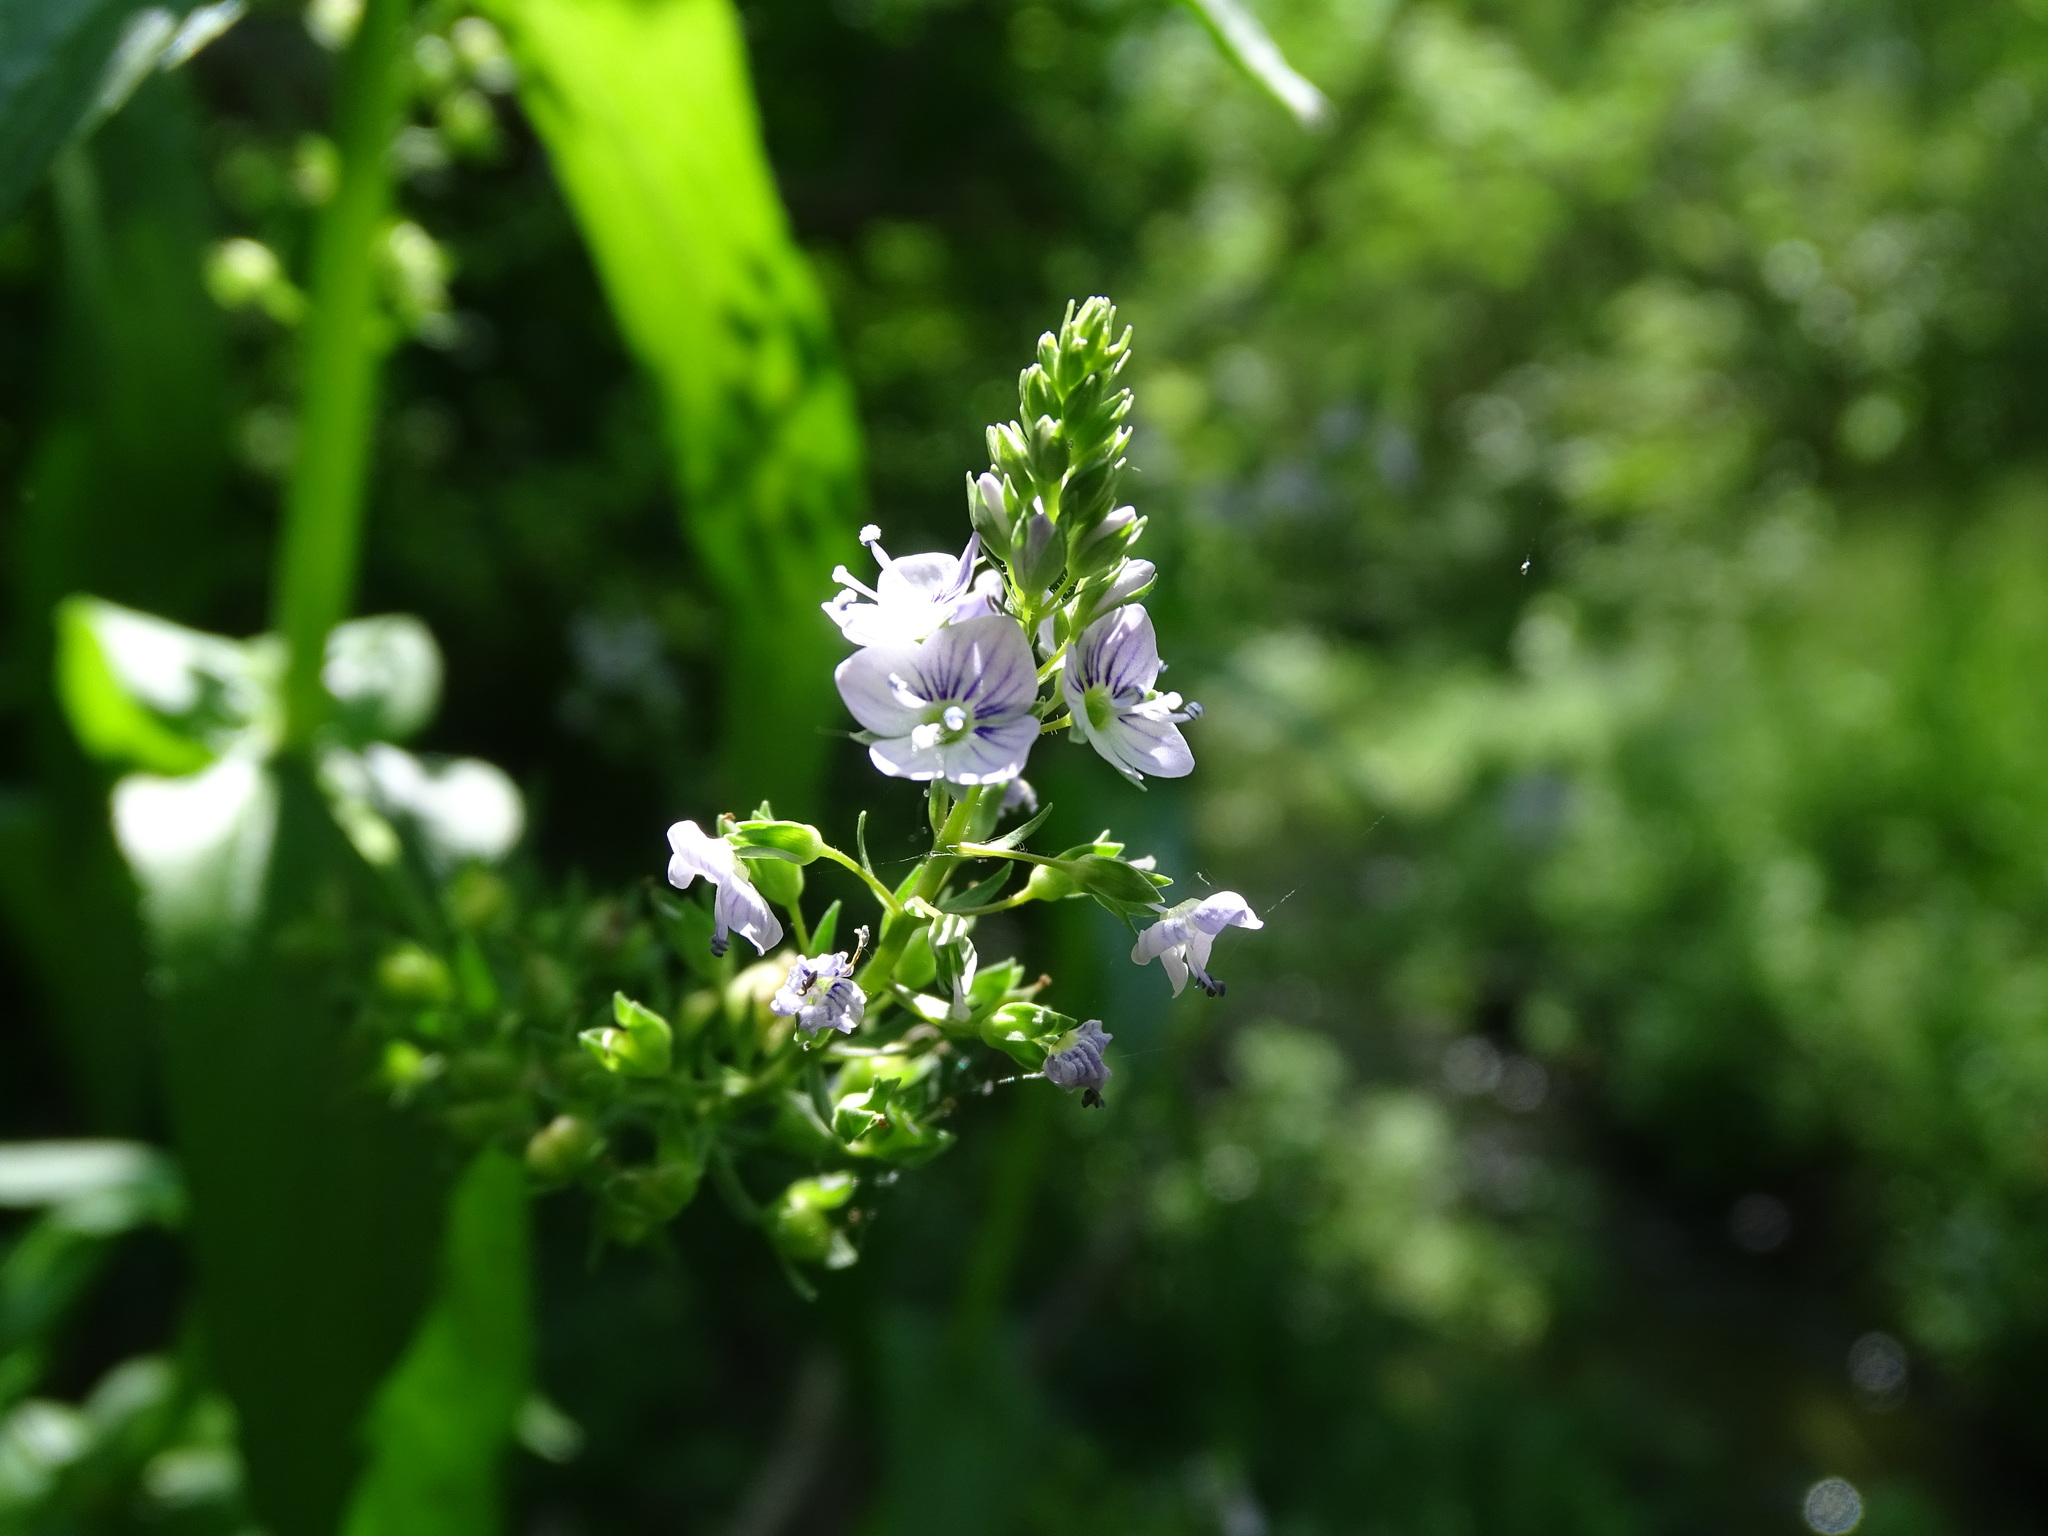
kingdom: Plantae
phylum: Tracheophyta
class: Magnoliopsida
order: Lamiales
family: Plantaginaceae
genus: Veronica
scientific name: Veronica anagallis-aquatica
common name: Water speedwell
